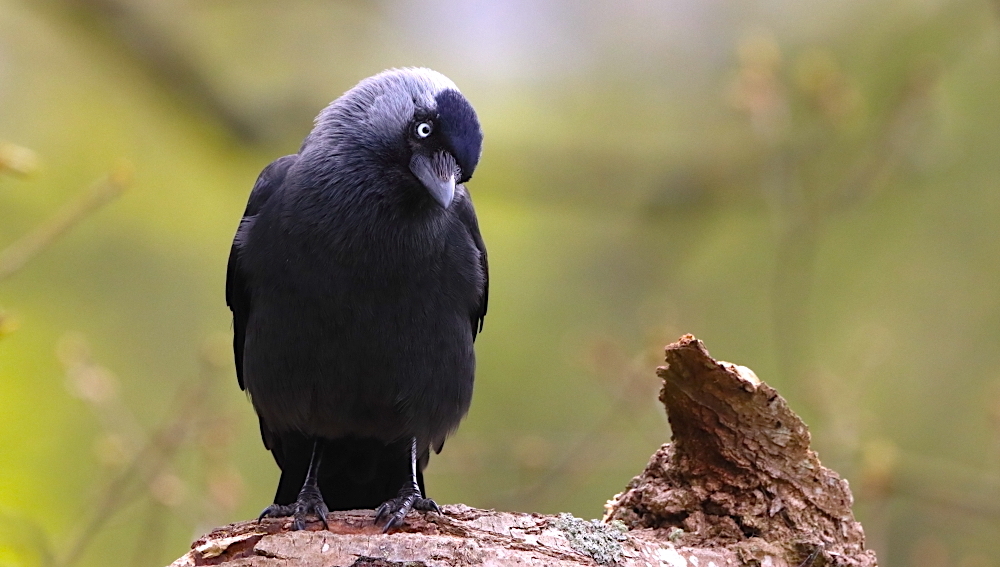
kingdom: Animalia
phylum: Chordata
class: Aves
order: Passeriformes
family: Corvidae
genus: Coloeus
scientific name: Coloeus monedula
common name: Western jackdaw
